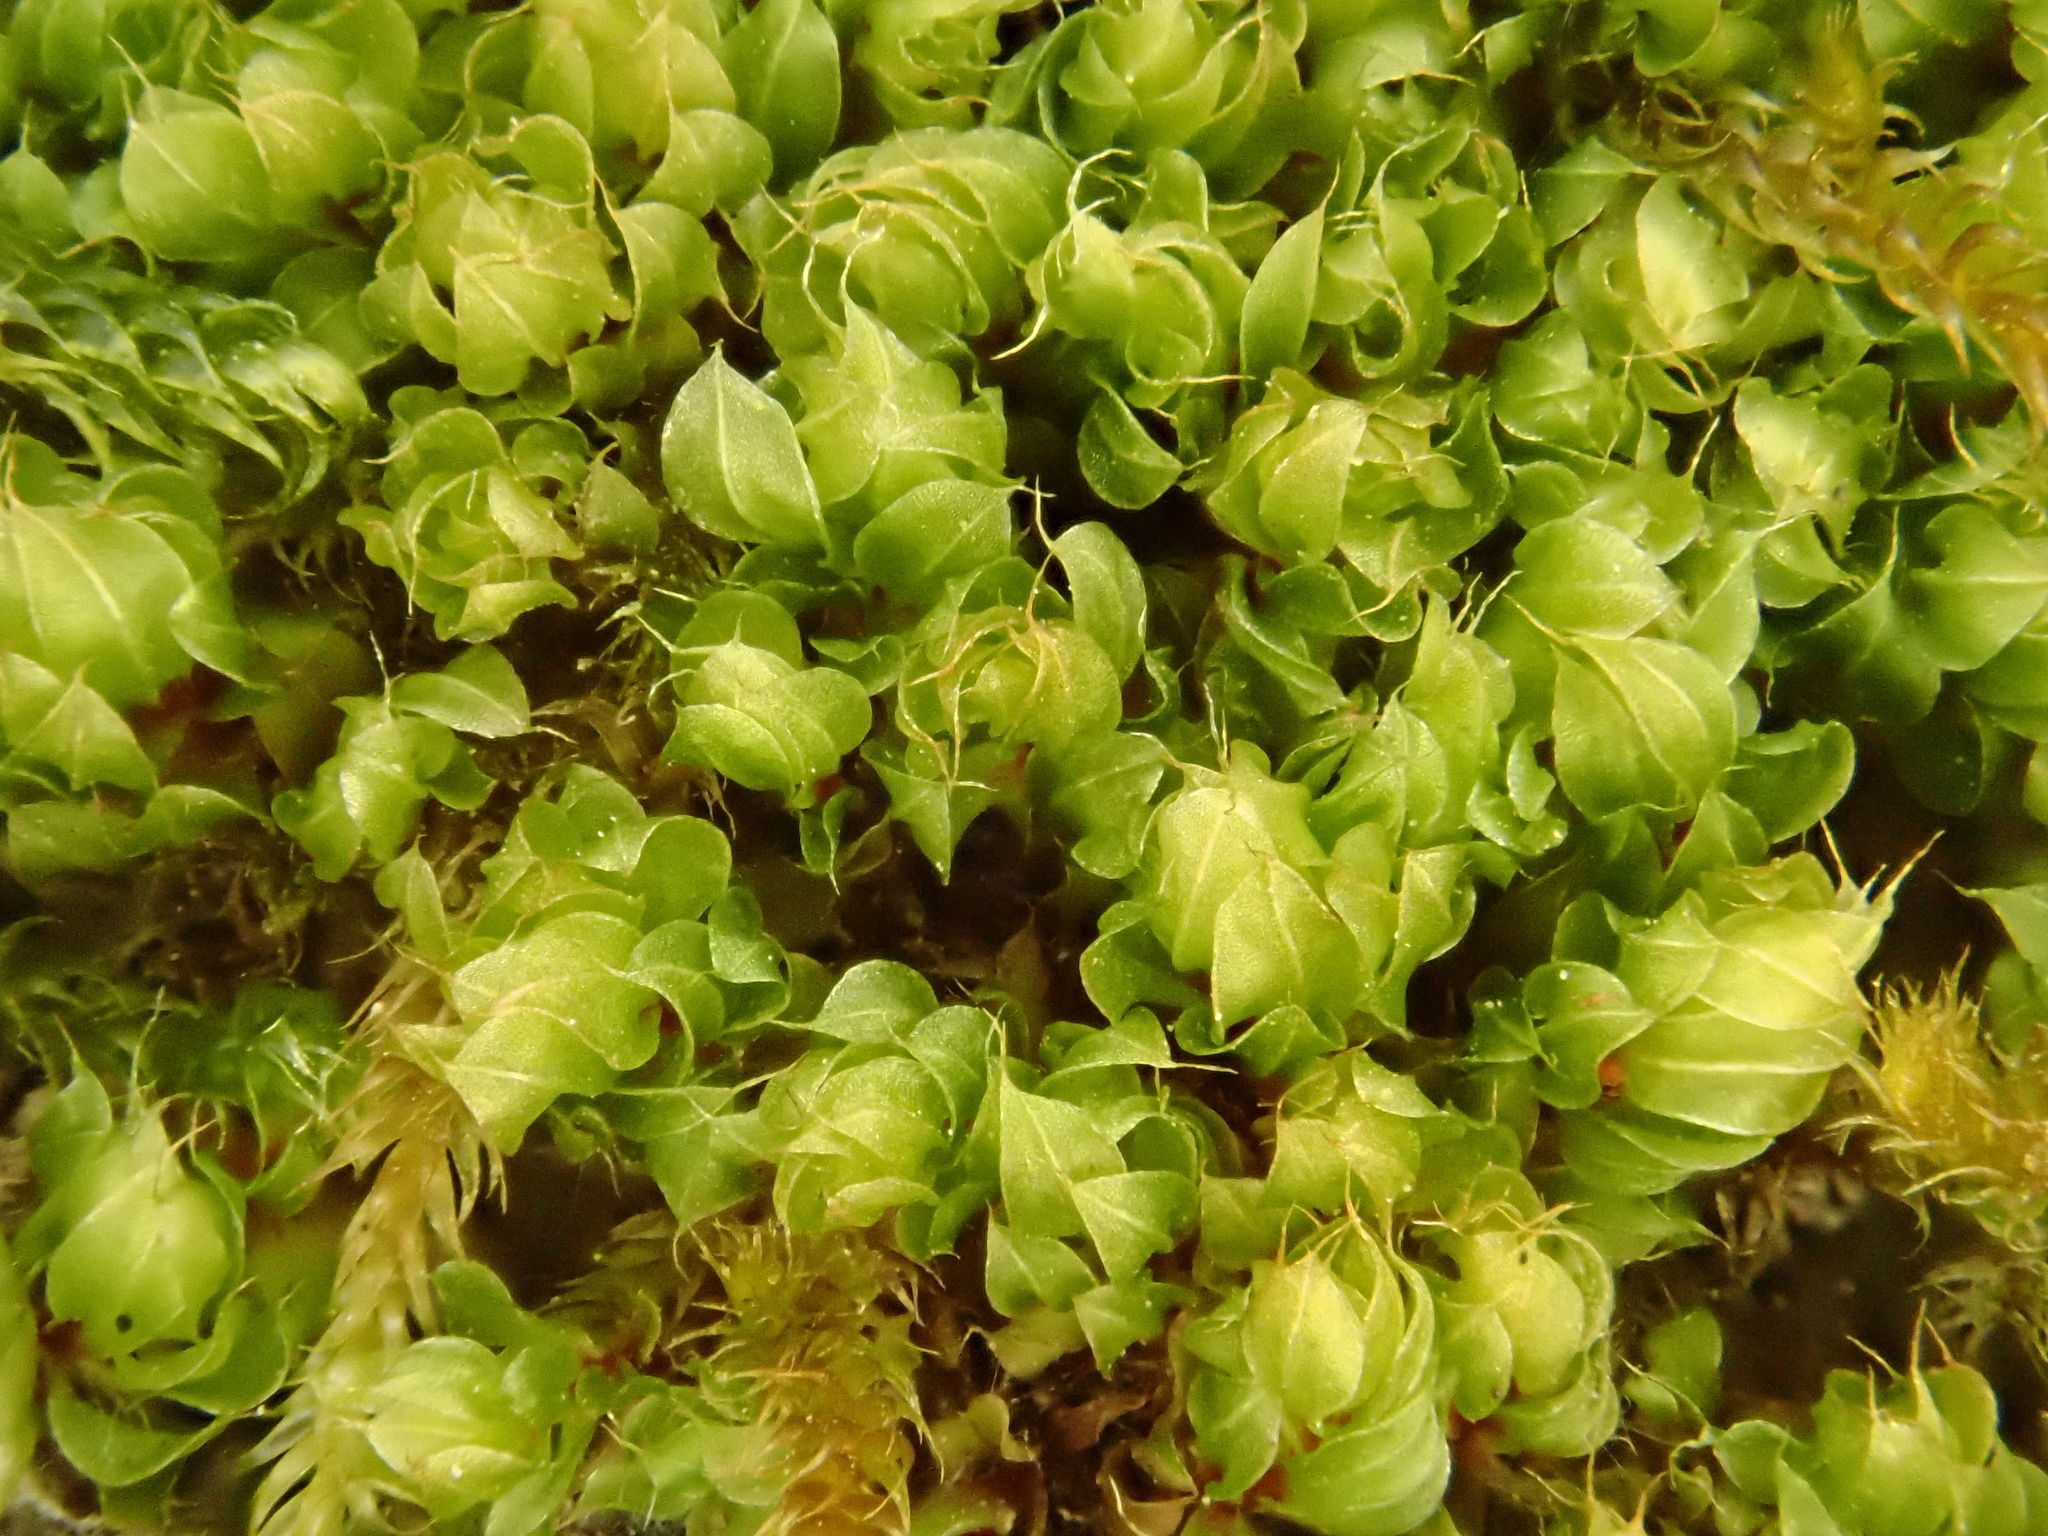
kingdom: Plantae
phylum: Bryophyta
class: Bryopsida
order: Bryales
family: Bryaceae
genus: Rosulabryum
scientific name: Rosulabryum capillare
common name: Capillary thread-moss
